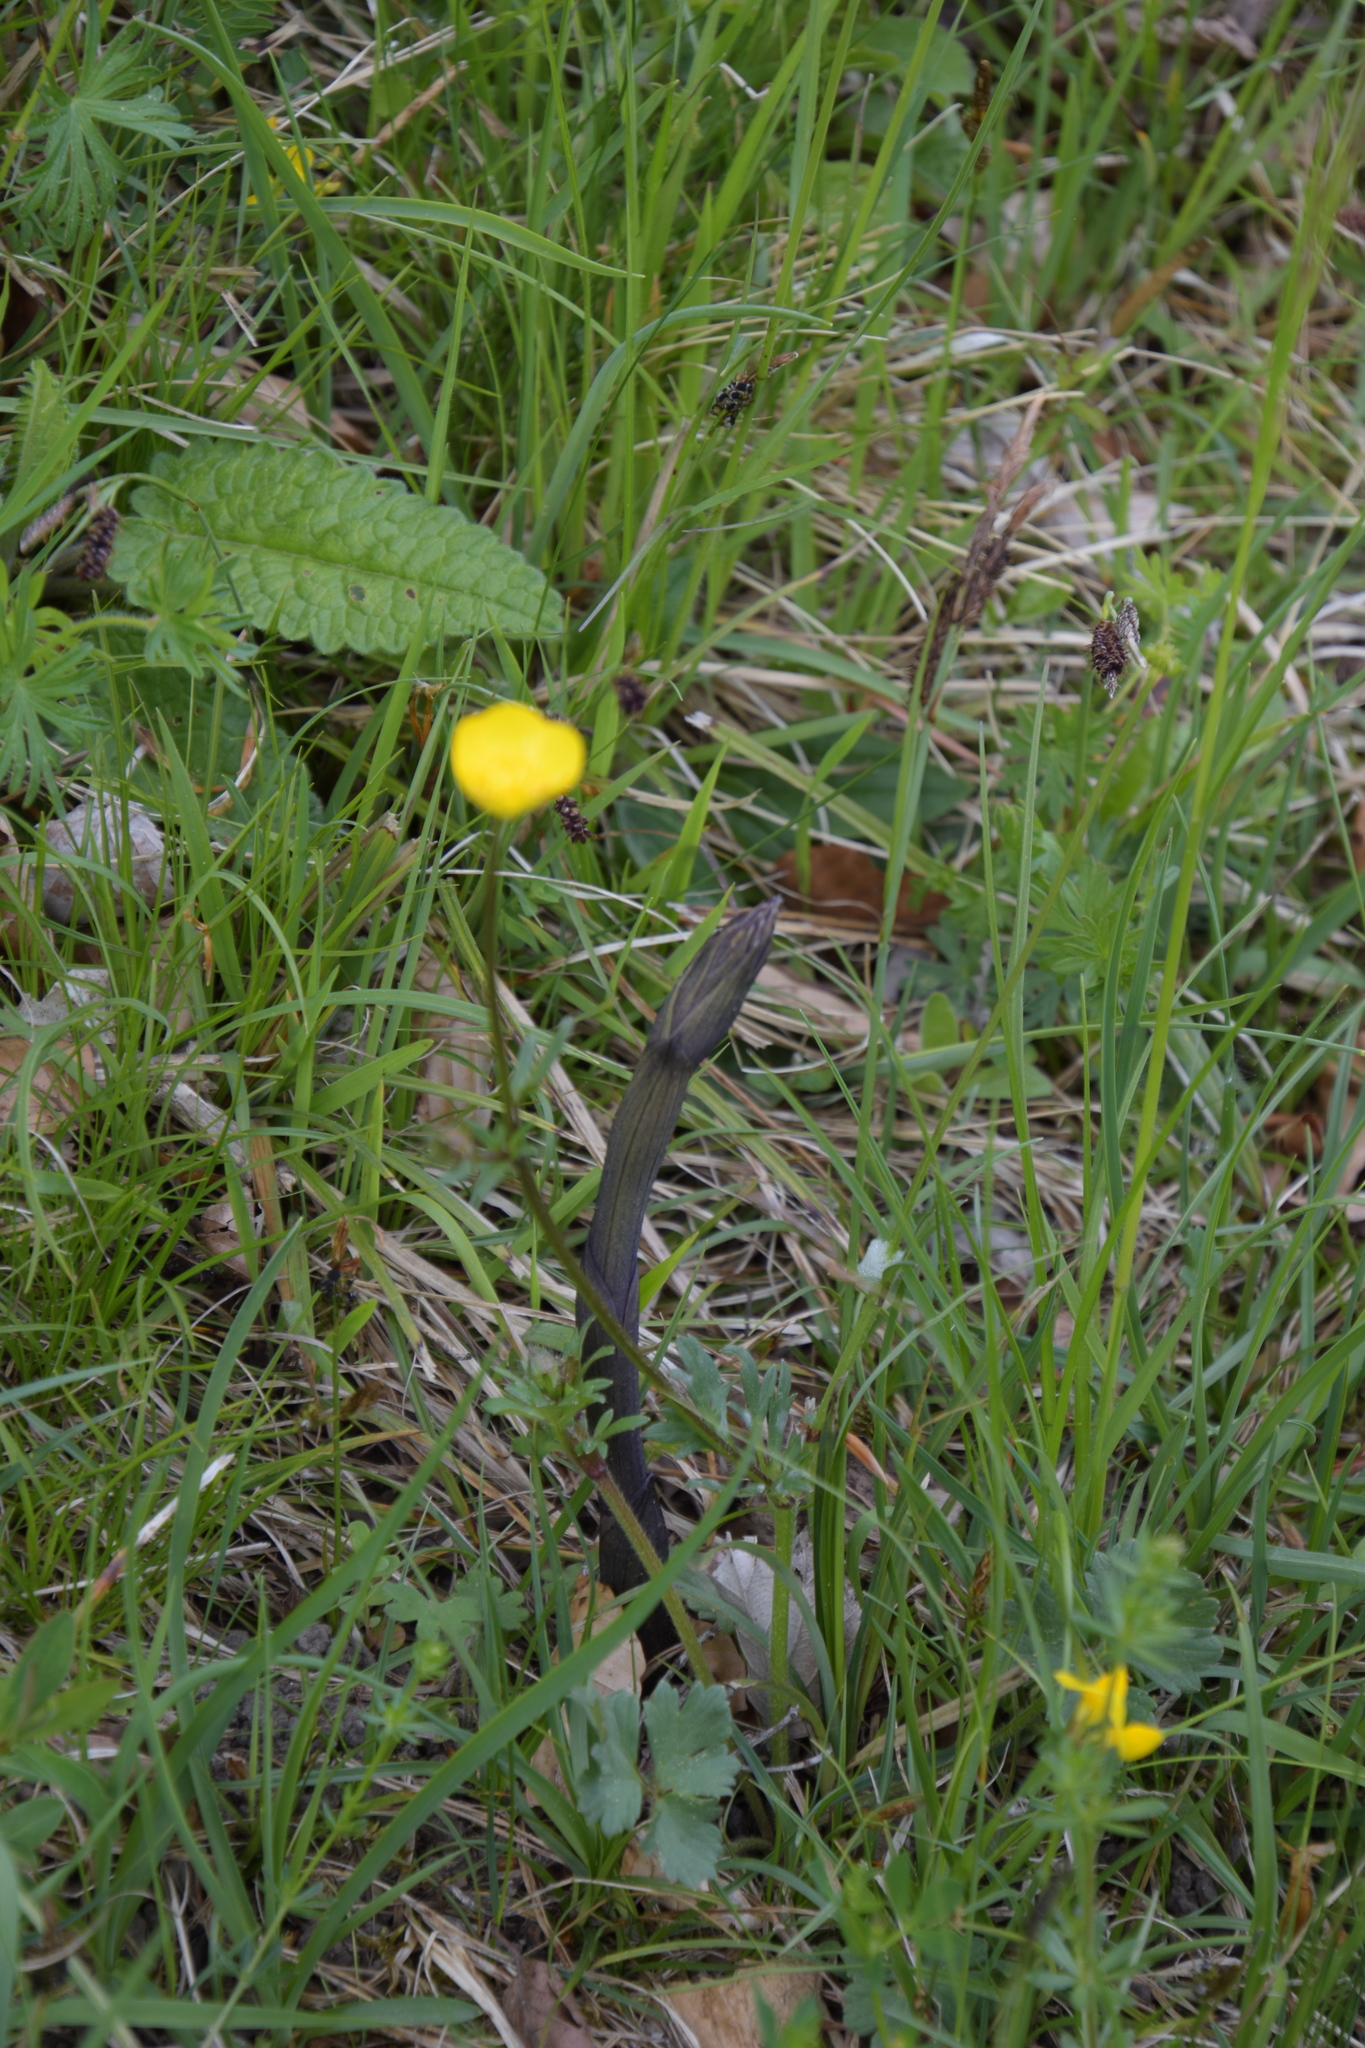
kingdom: Plantae
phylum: Tracheophyta
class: Liliopsida
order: Asparagales
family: Orchidaceae
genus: Limodorum
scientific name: Limodorum abortivum
